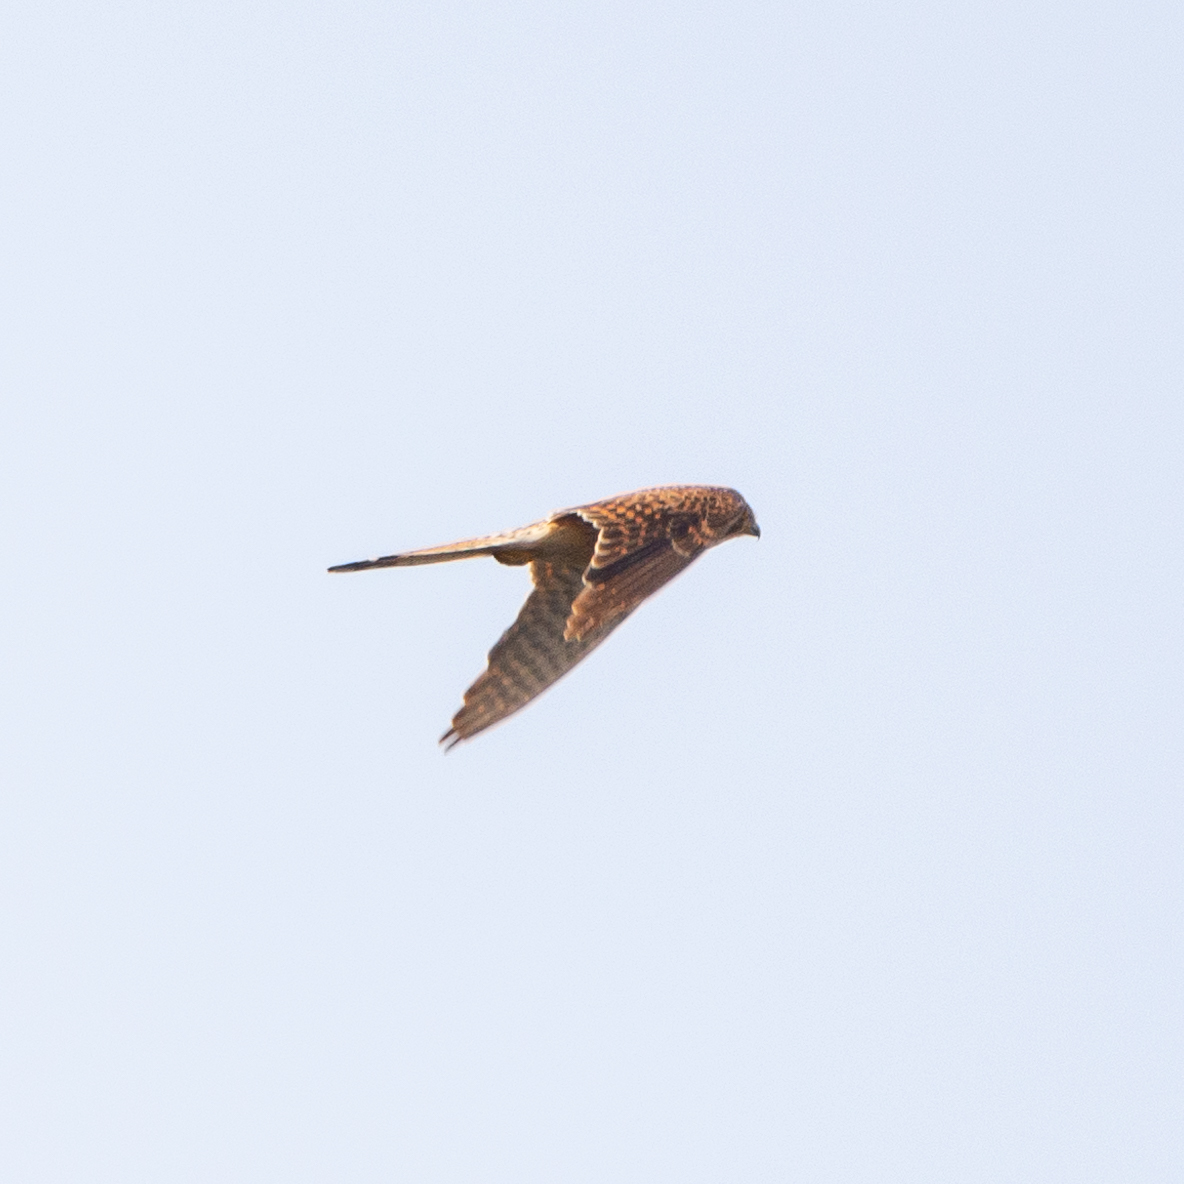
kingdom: Animalia
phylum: Chordata
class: Aves
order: Falconiformes
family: Falconidae
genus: Falco
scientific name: Falco tinnunculus
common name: Common kestrel
